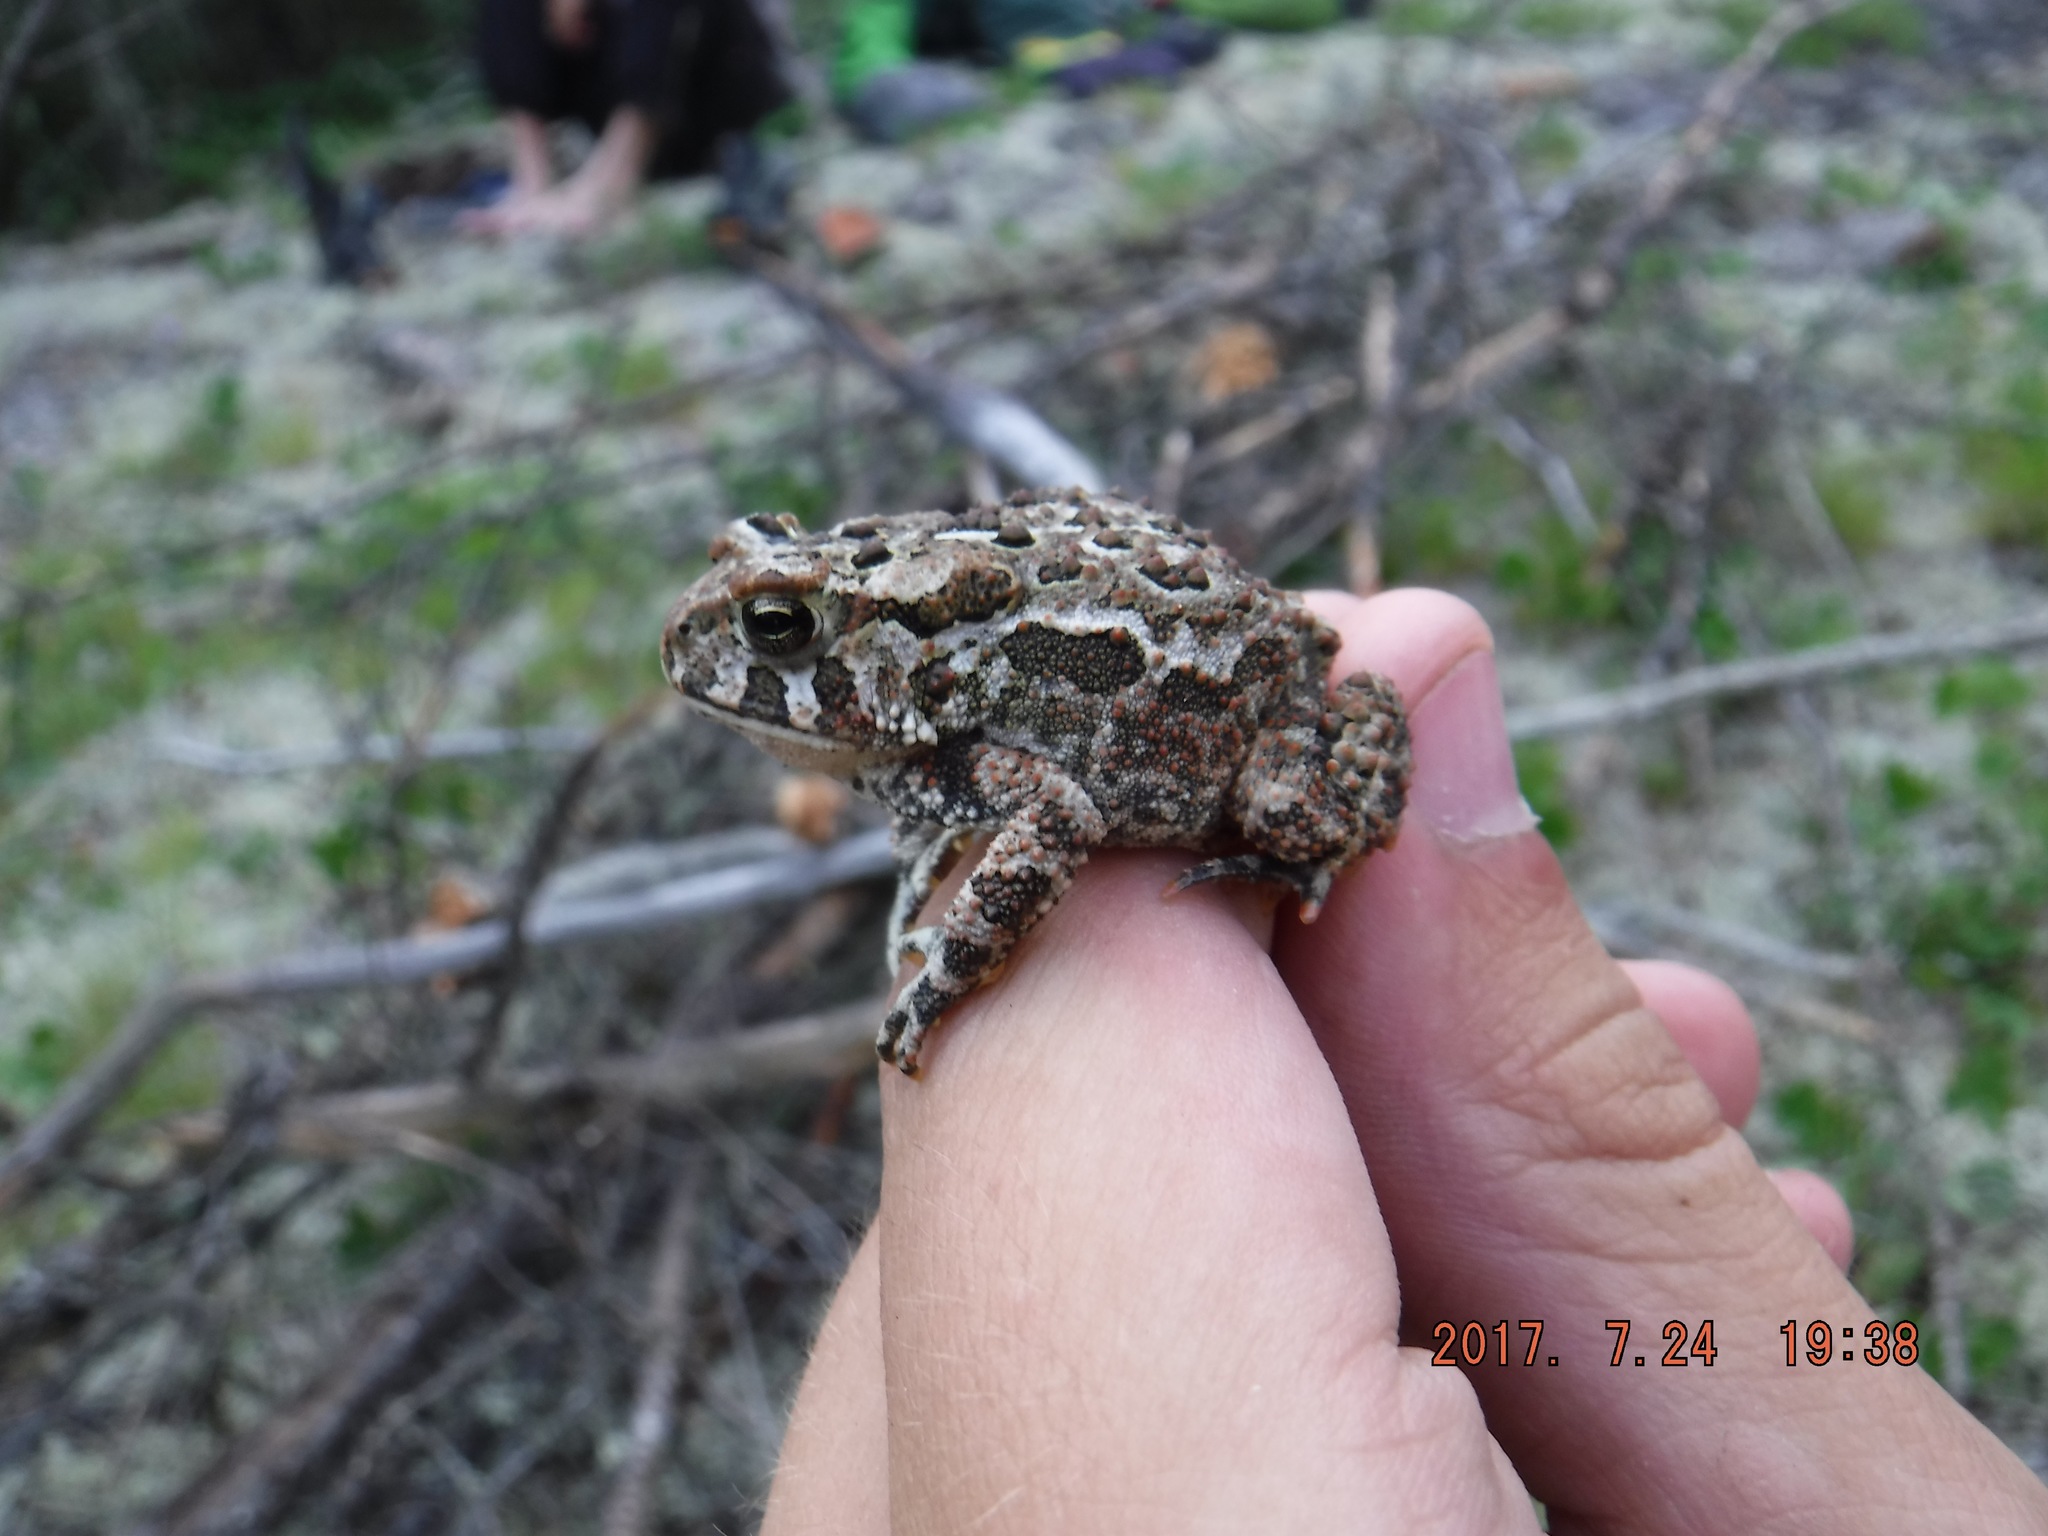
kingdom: Animalia
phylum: Chordata
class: Amphibia
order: Anura
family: Bufonidae
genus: Anaxyrus
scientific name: Anaxyrus americanus
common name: American toad
